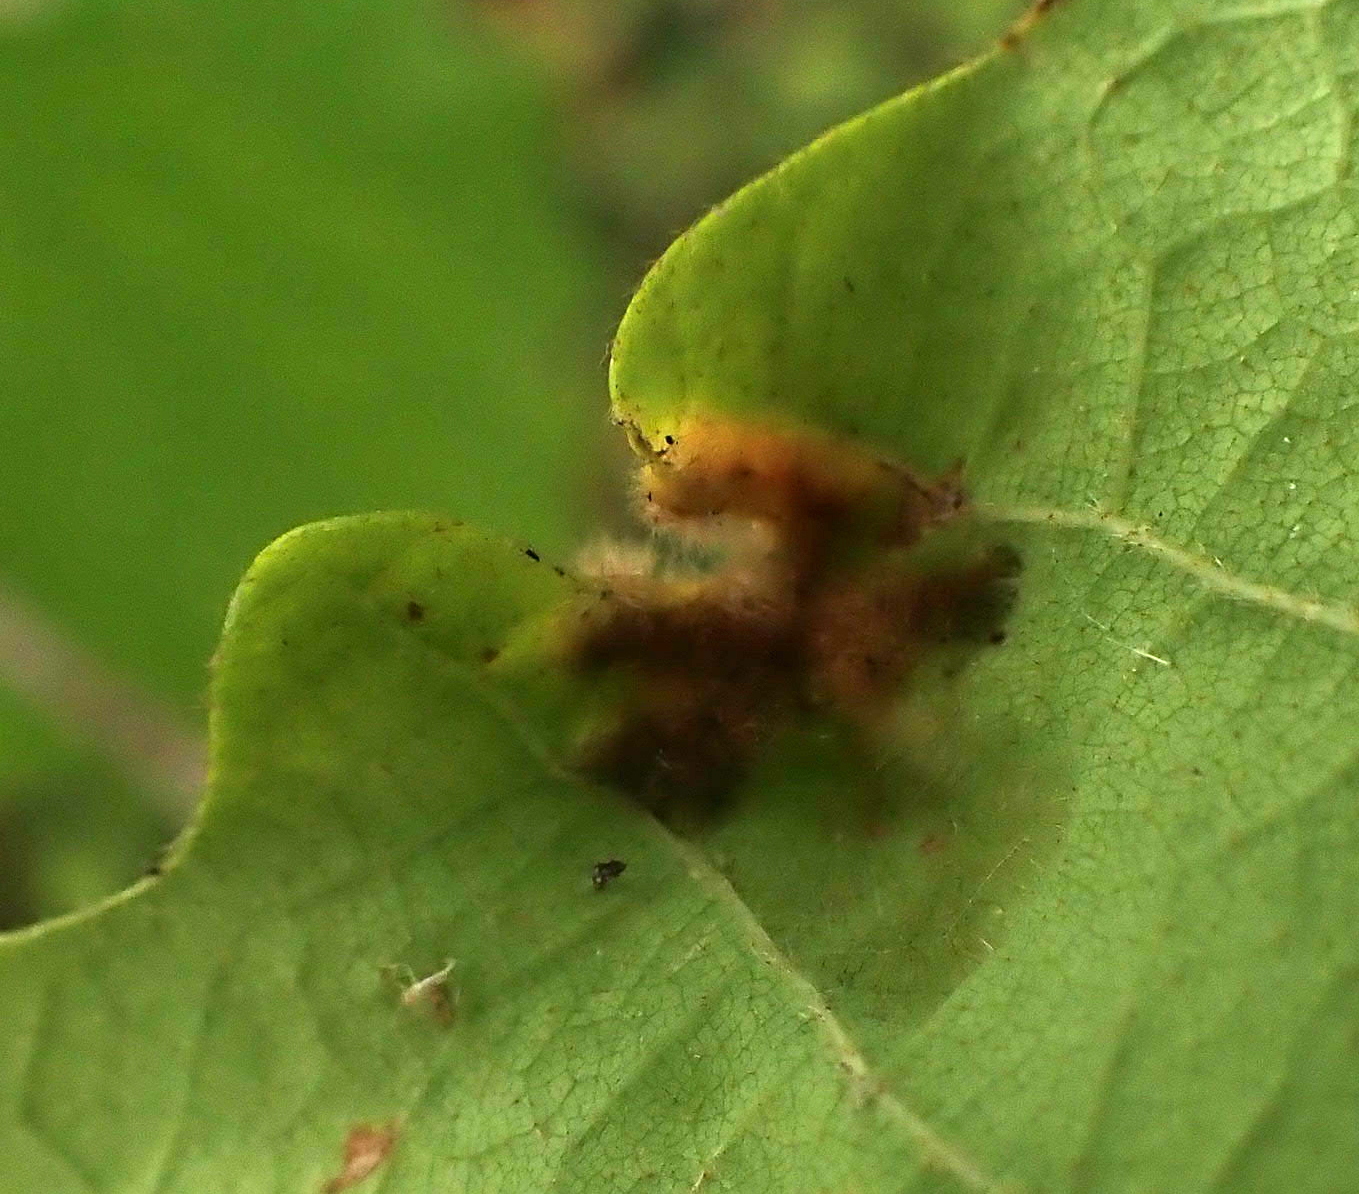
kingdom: Animalia
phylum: Arthropoda
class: Arachnida
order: Trombidiformes
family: Eriophyidae
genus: Aceria
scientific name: Aceria quercina
